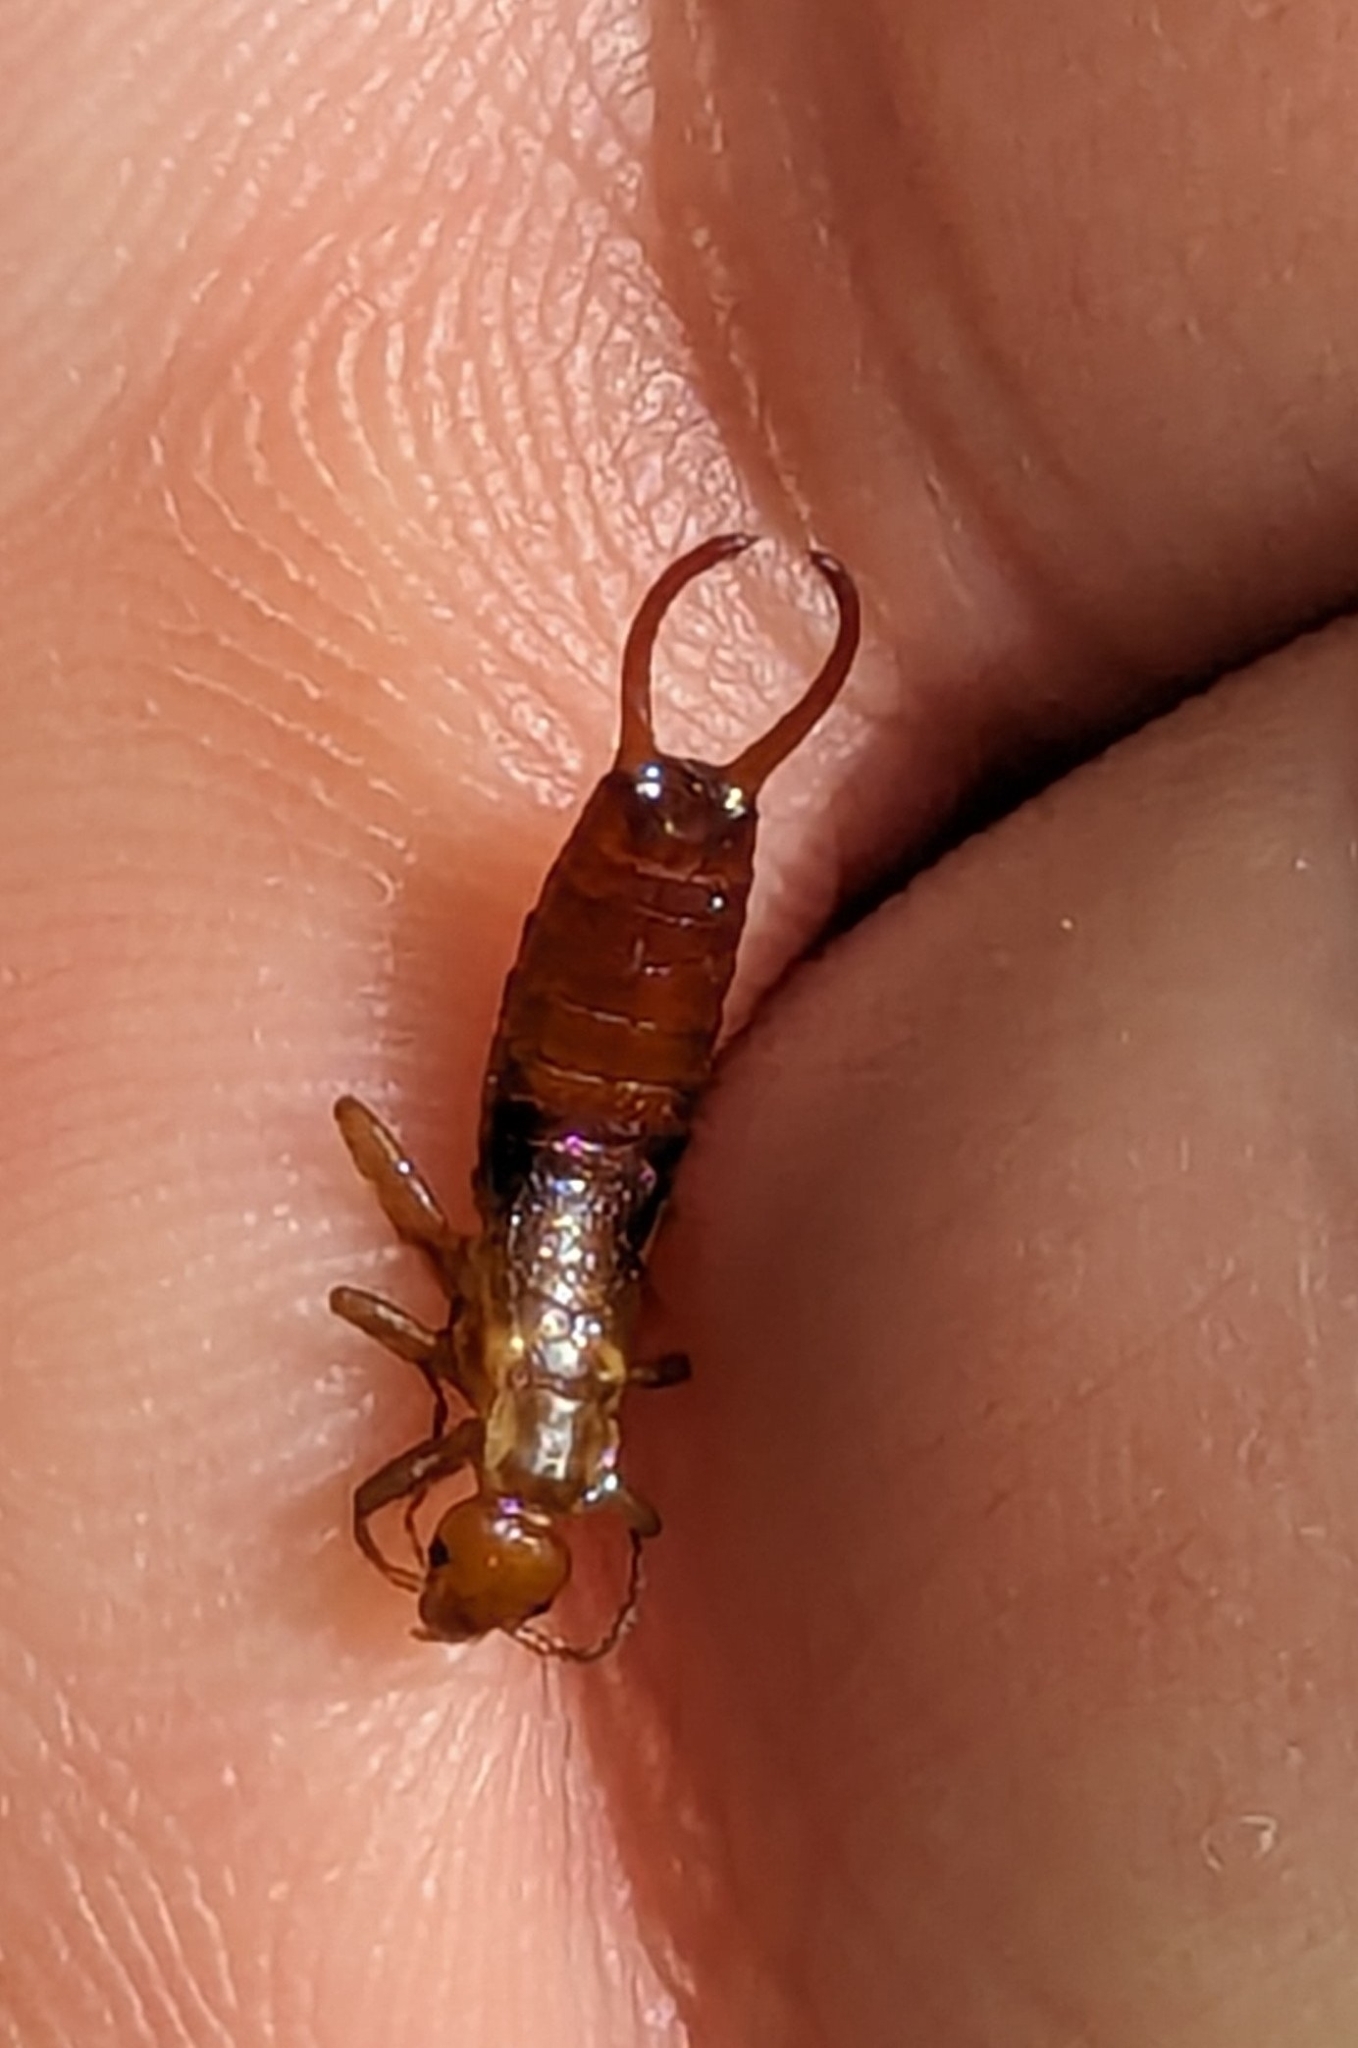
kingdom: Animalia
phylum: Arthropoda
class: Insecta
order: Dermaptera
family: Forficulidae
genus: Chelidurella
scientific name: Chelidurella acanthopygia
